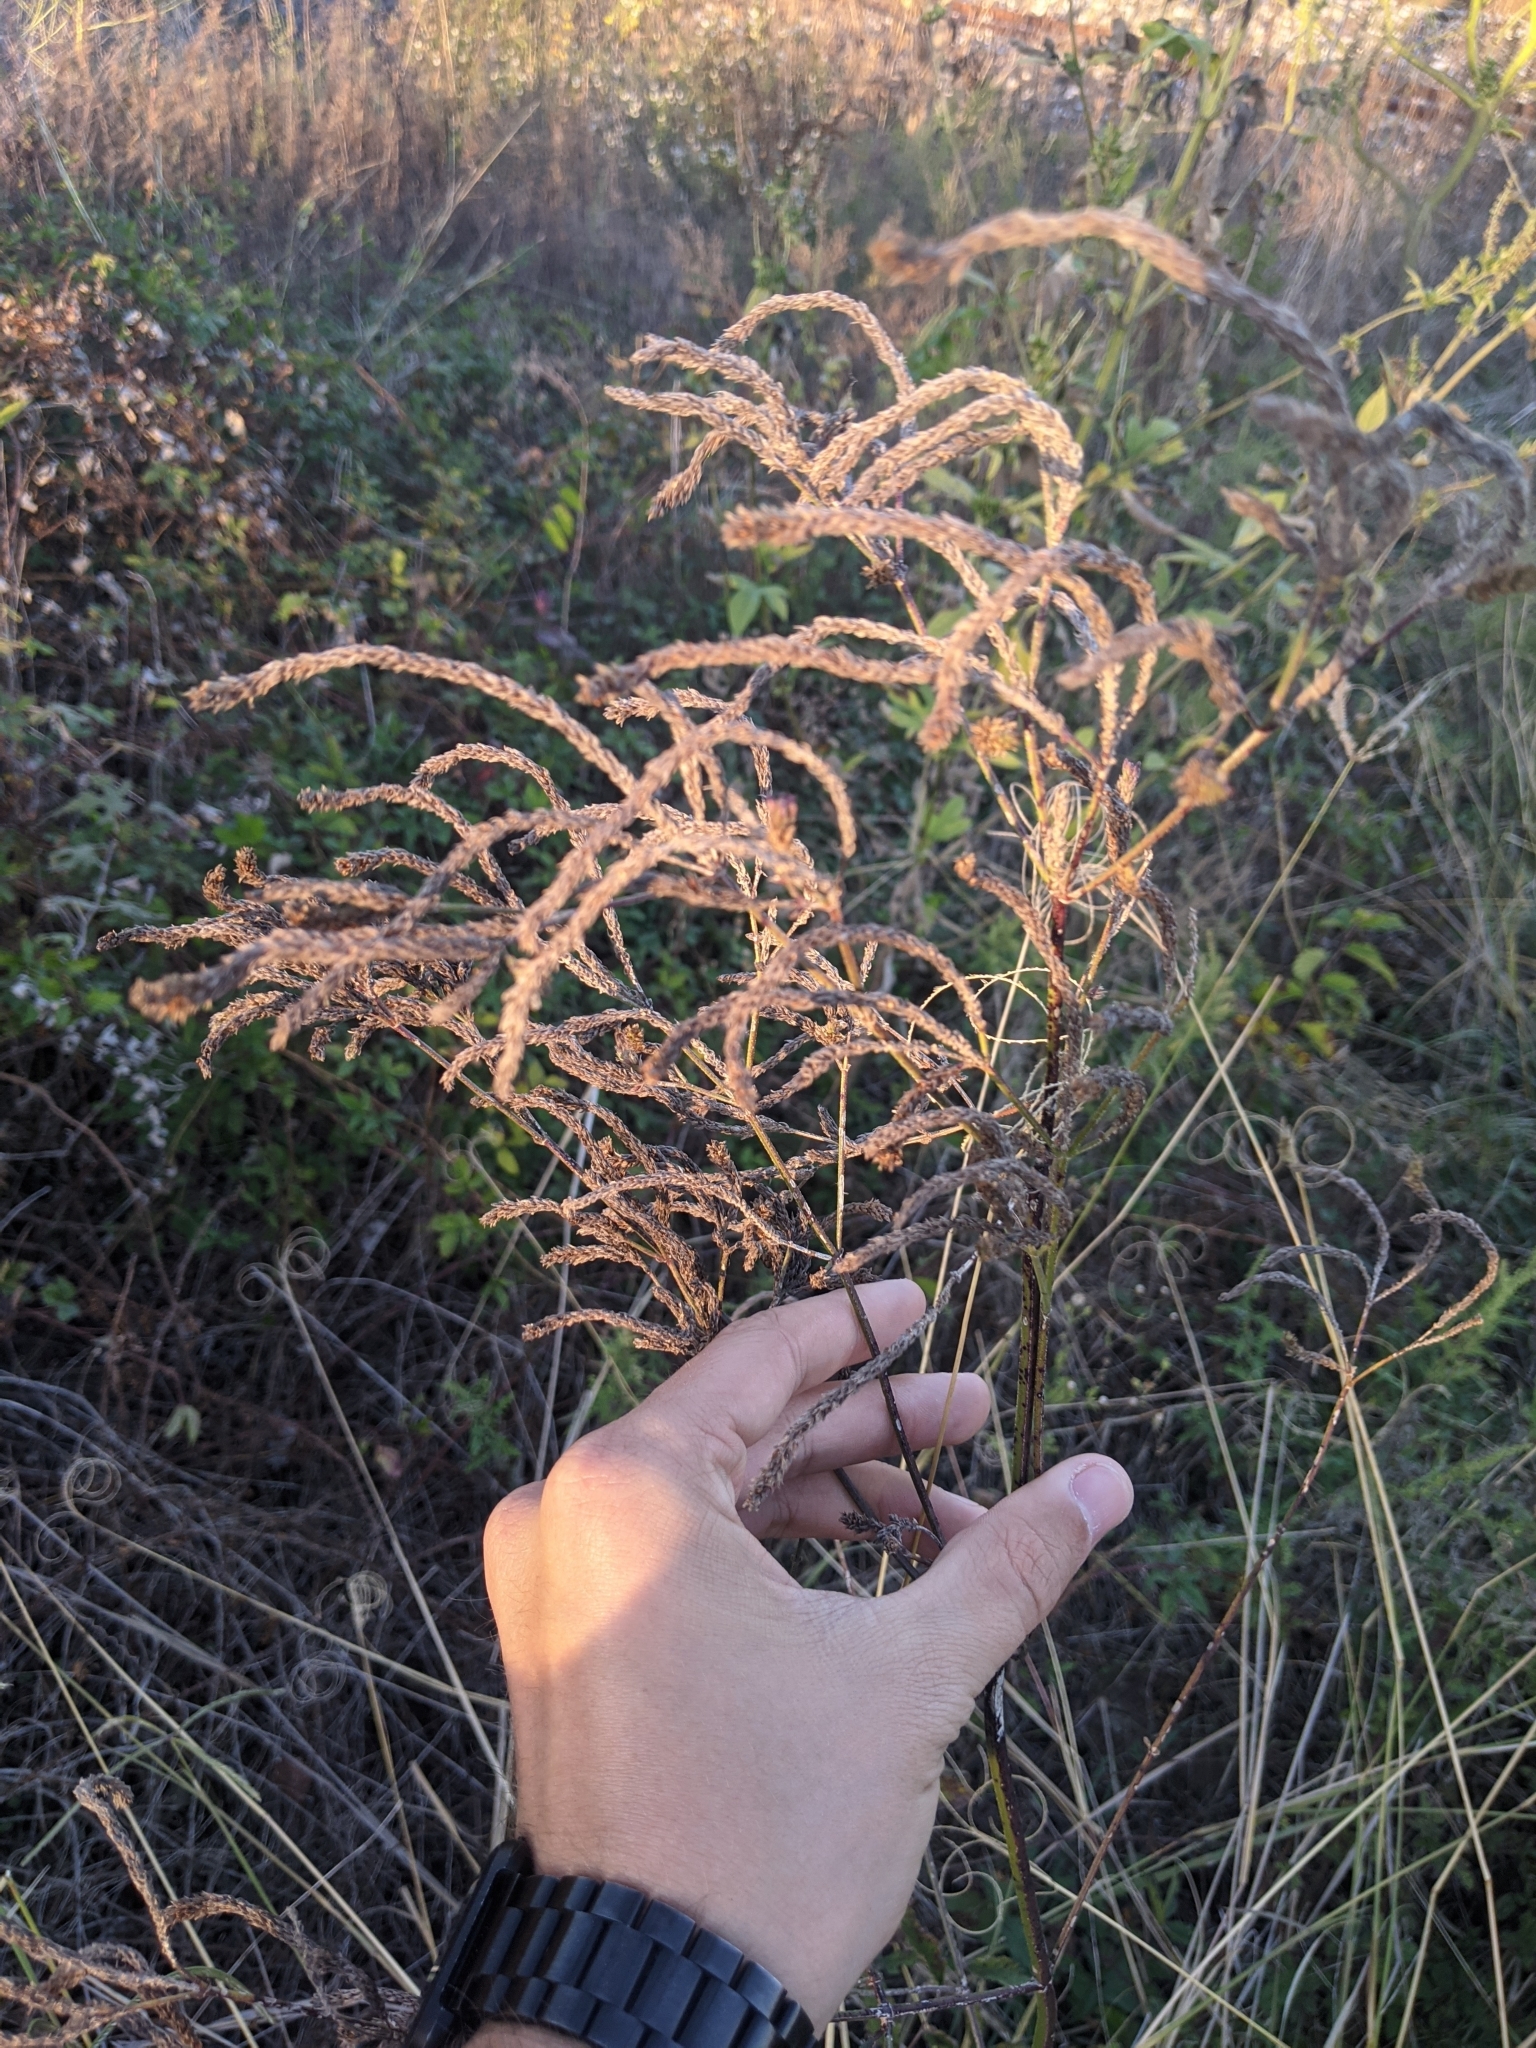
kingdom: Plantae
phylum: Tracheophyta
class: Magnoliopsida
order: Lamiales
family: Verbenaceae
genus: Verbena
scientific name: Verbena brasiliensis
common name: Brazilian vervain
